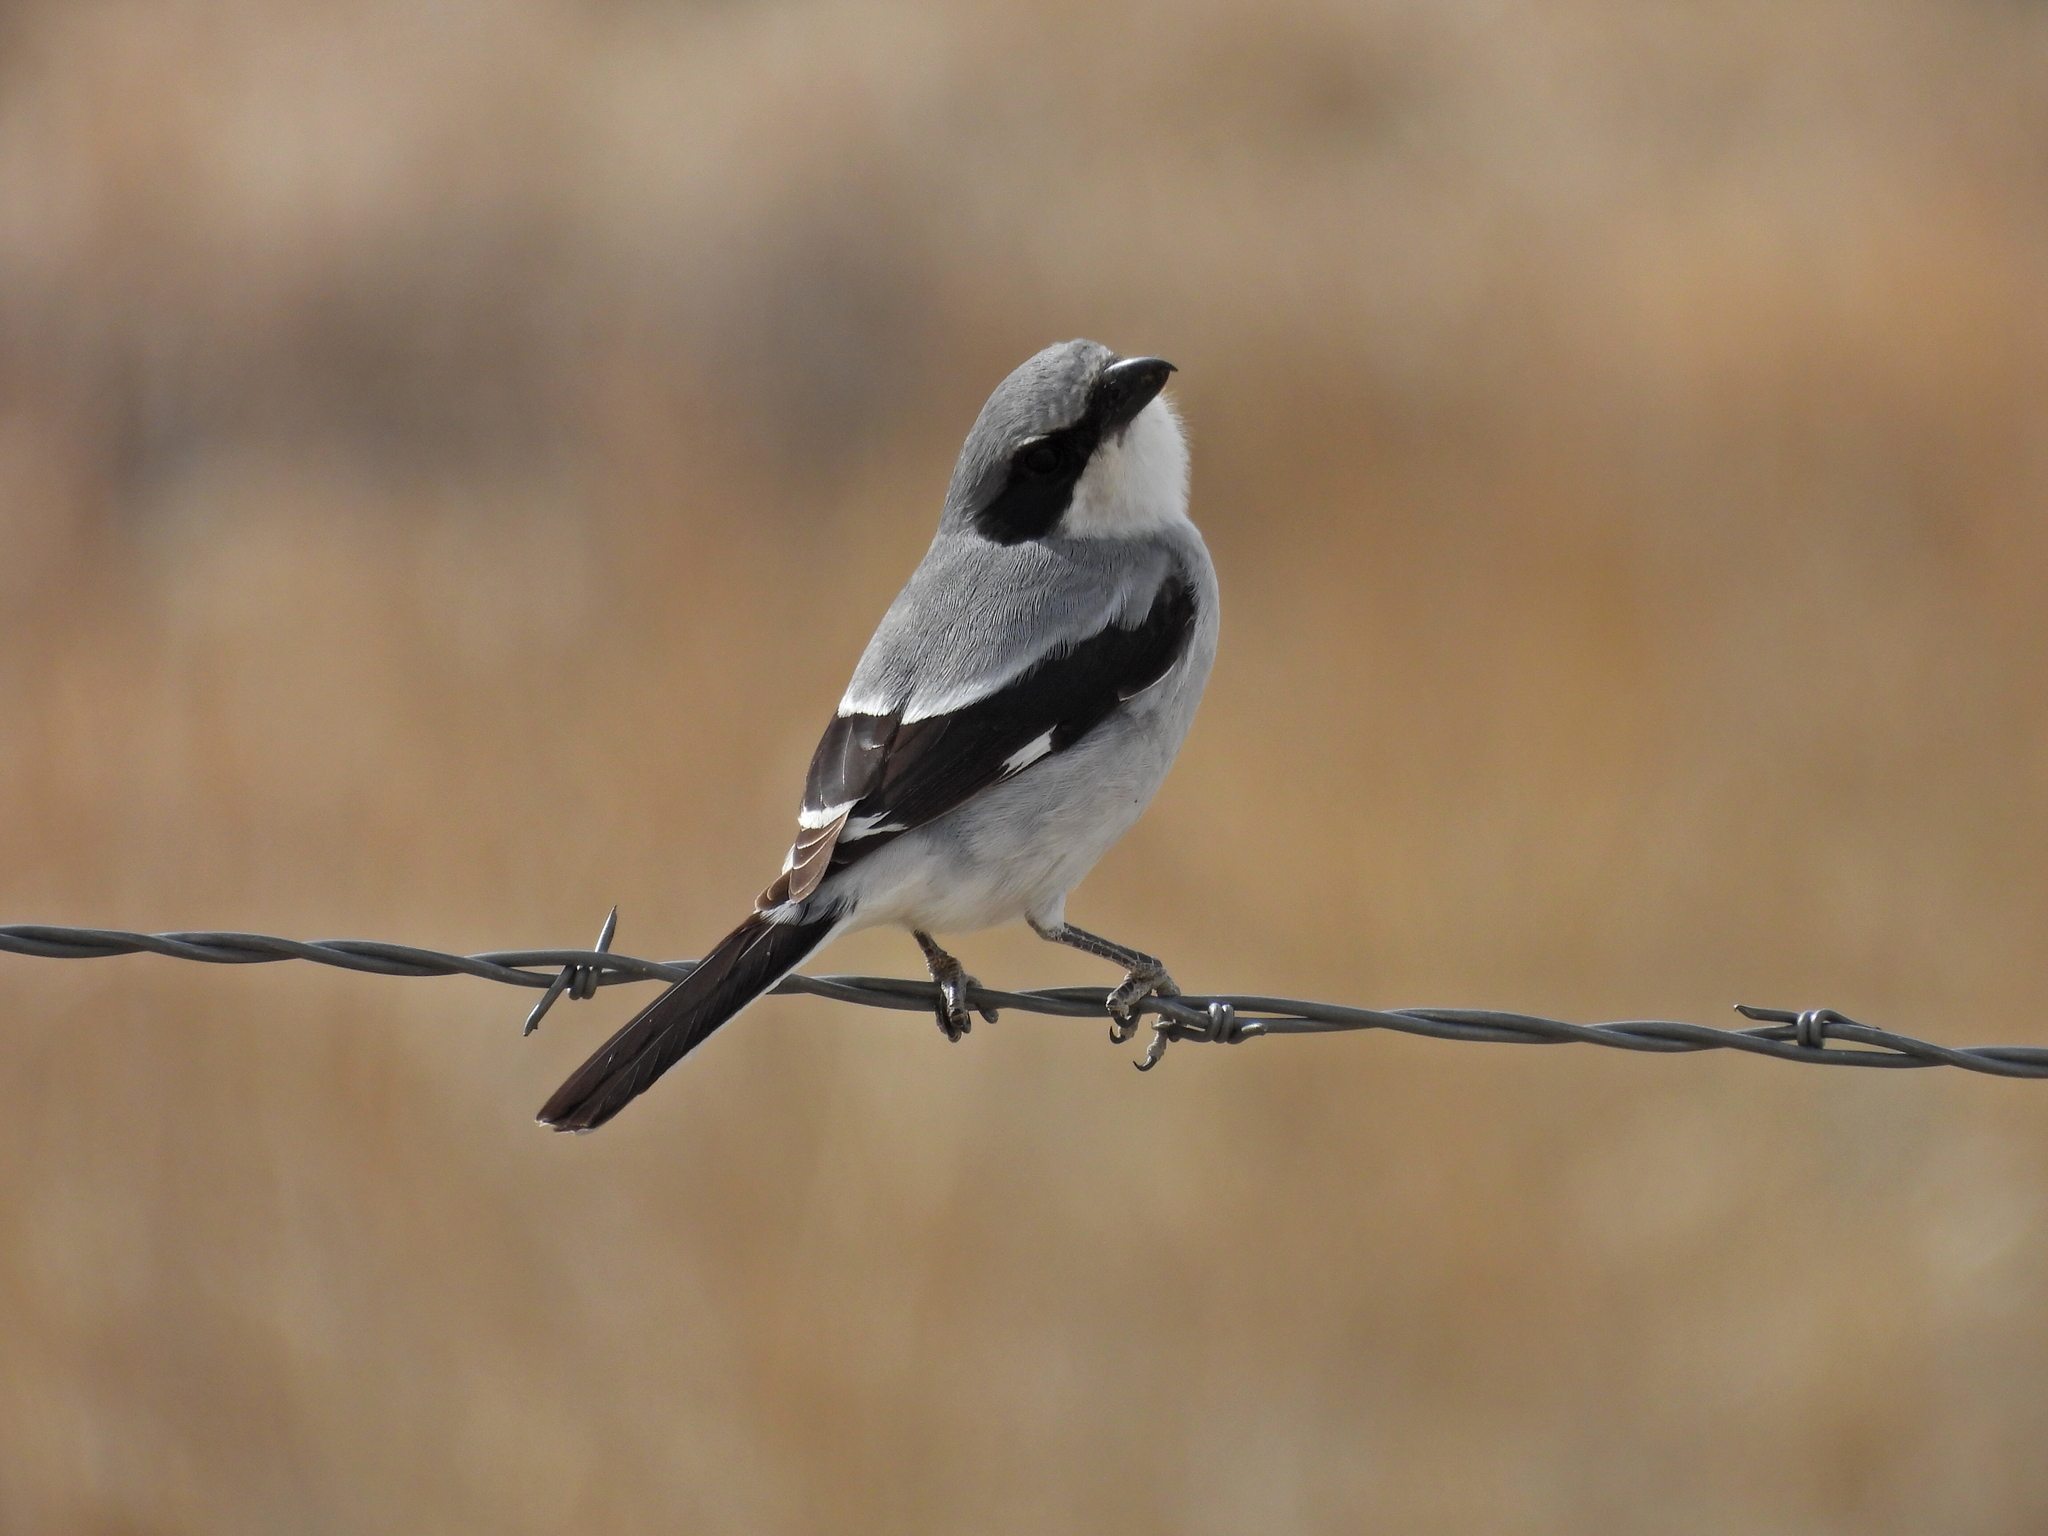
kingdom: Animalia
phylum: Chordata
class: Aves
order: Passeriformes
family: Laniidae
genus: Lanius
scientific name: Lanius ludovicianus
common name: Loggerhead shrike
